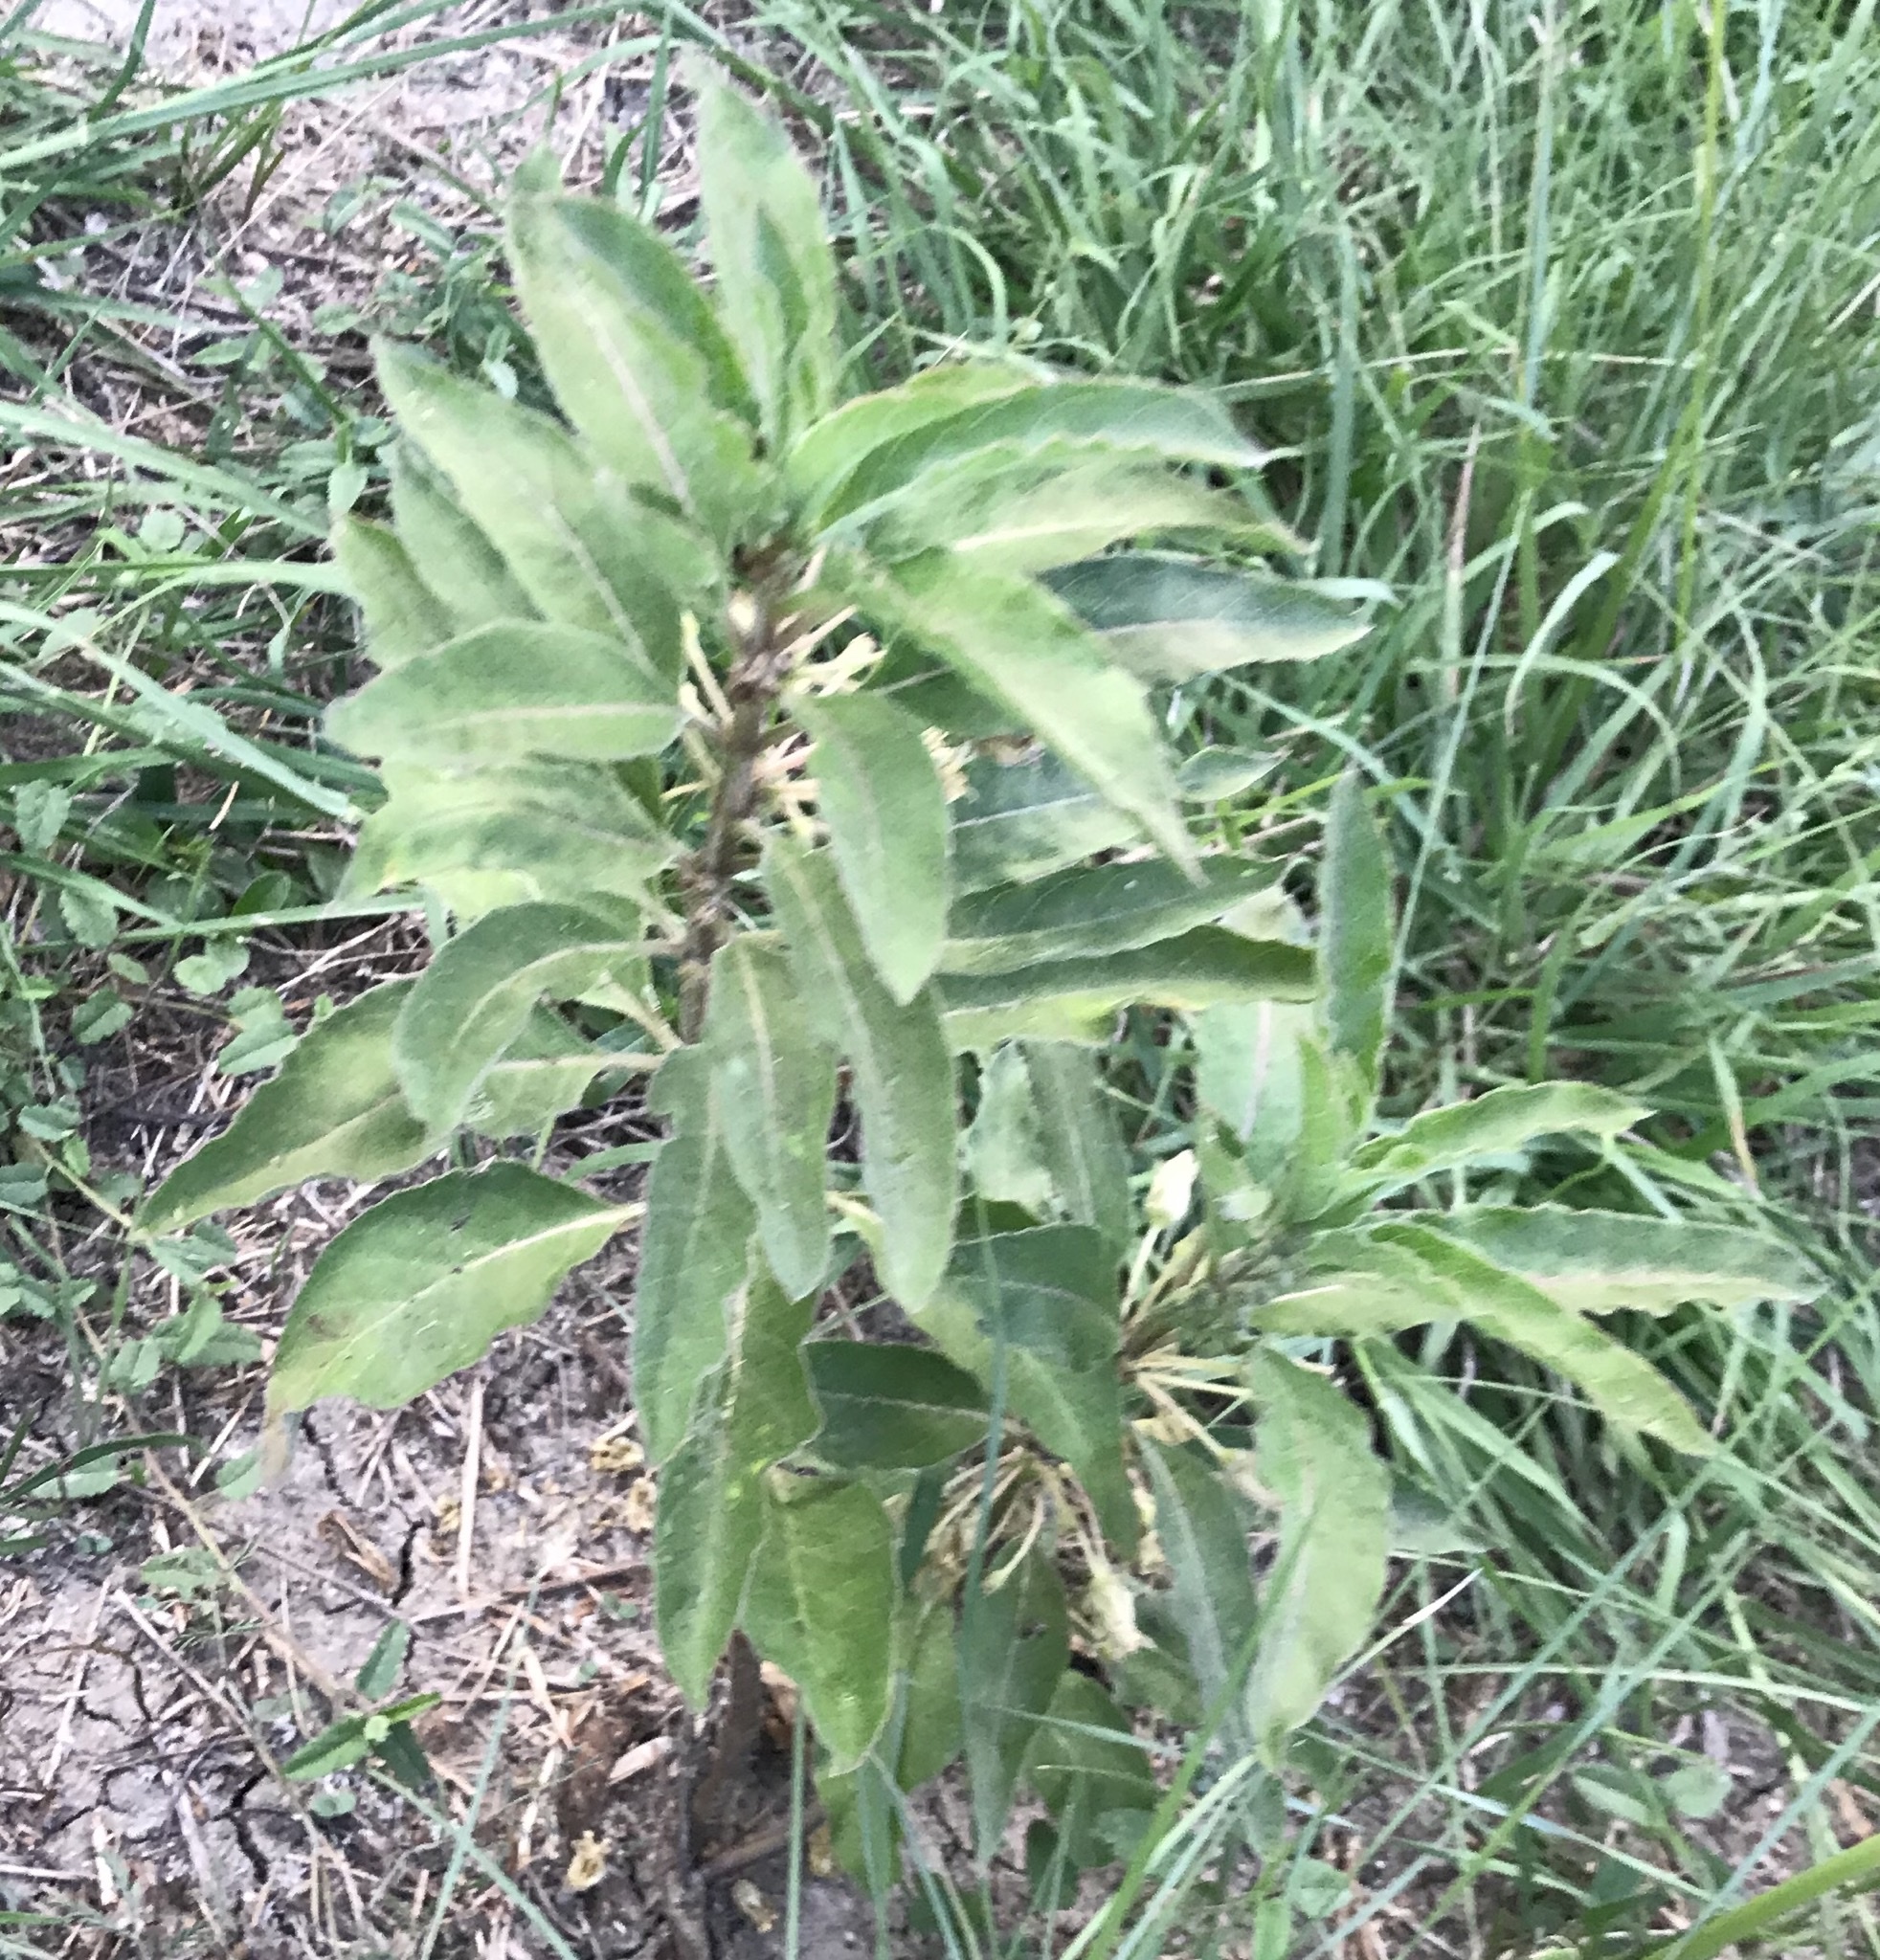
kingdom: Plantae
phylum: Tracheophyta
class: Magnoliopsida
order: Gentianales
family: Apocynaceae
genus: Asclepias
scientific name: Asclepias oenotheroides
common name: Zizotes milkweed
